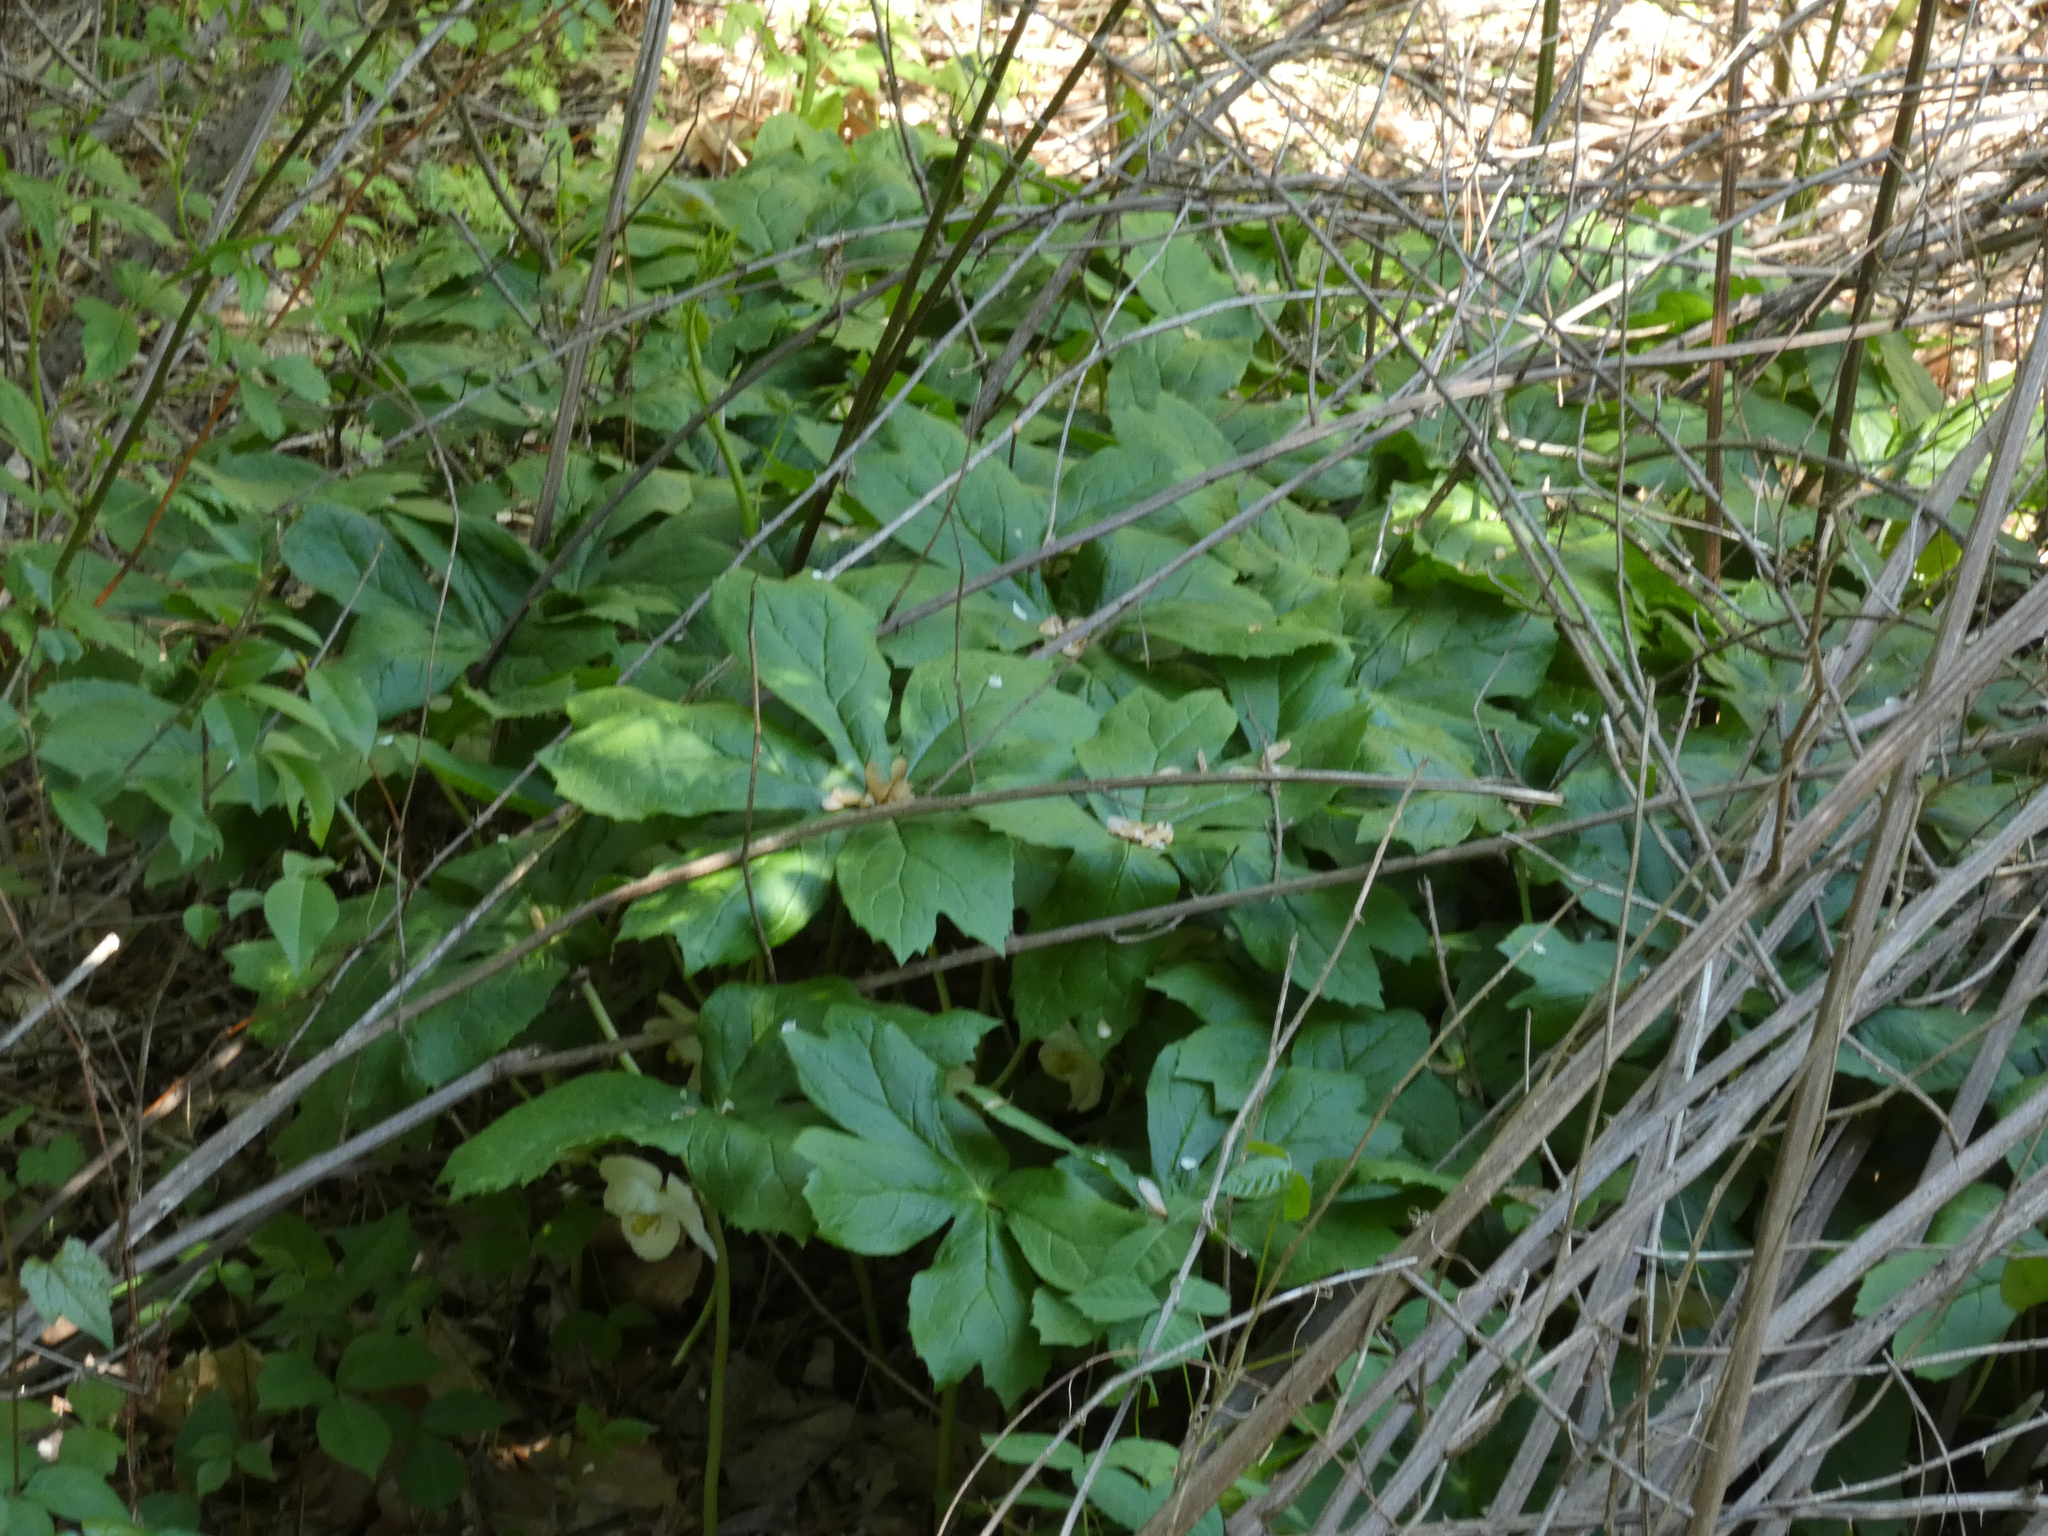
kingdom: Plantae
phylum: Tracheophyta
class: Magnoliopsida
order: Ranunculales
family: Berberidaceae
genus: Podophyllum
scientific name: Podophyllum peltatum
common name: Wild mandrake
